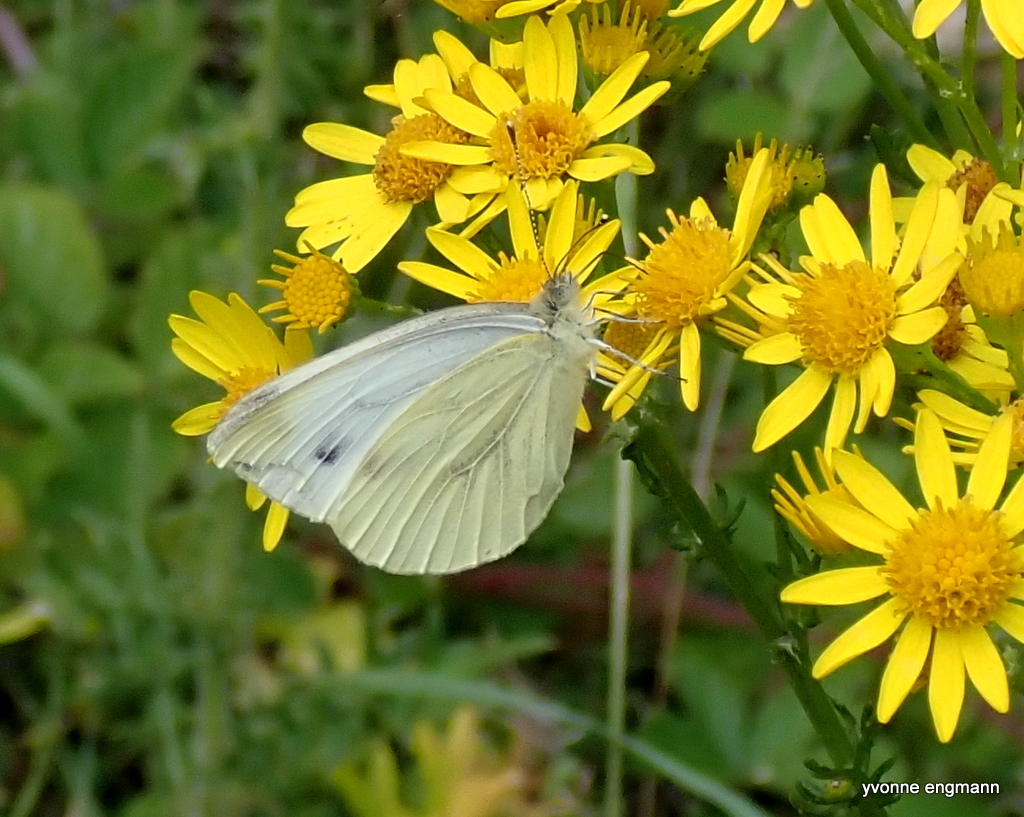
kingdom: Animalia
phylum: Arthropoda
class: Insecta
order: Lepidoptera
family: Pieridae
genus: Pieris
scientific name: Pieris napi
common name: Green-veined white
